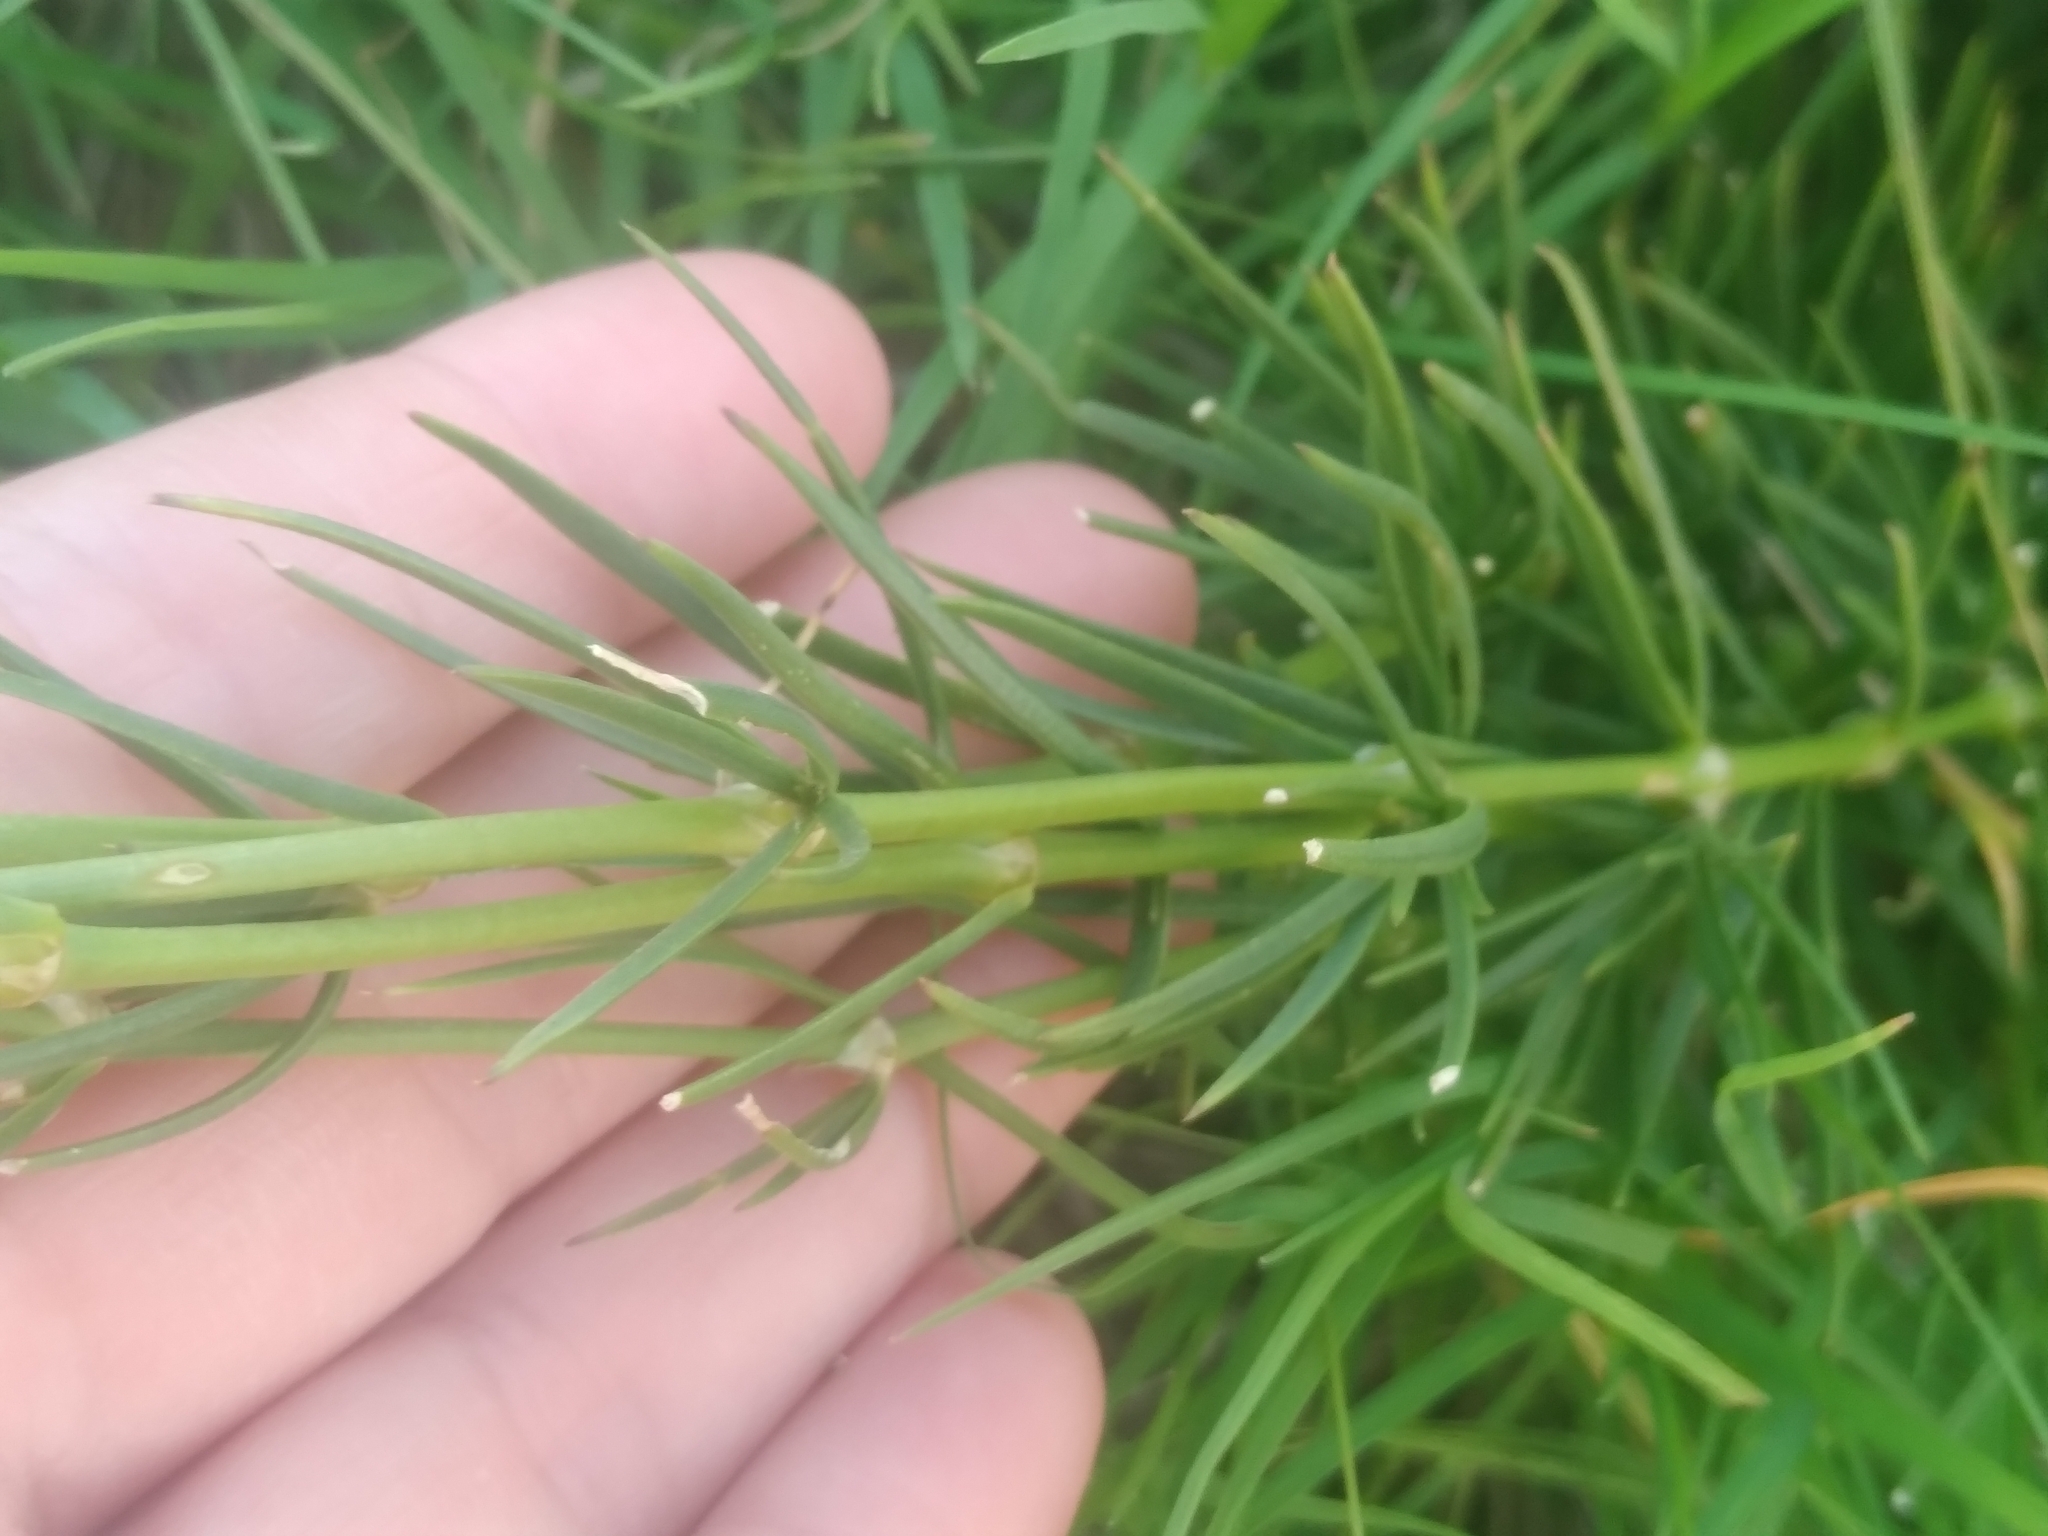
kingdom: Plantae
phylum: Tracheophyta
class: Magnoliopsida
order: Caryophyllales
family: Caryophyllaceae
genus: Spergula
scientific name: Spergula grandis
